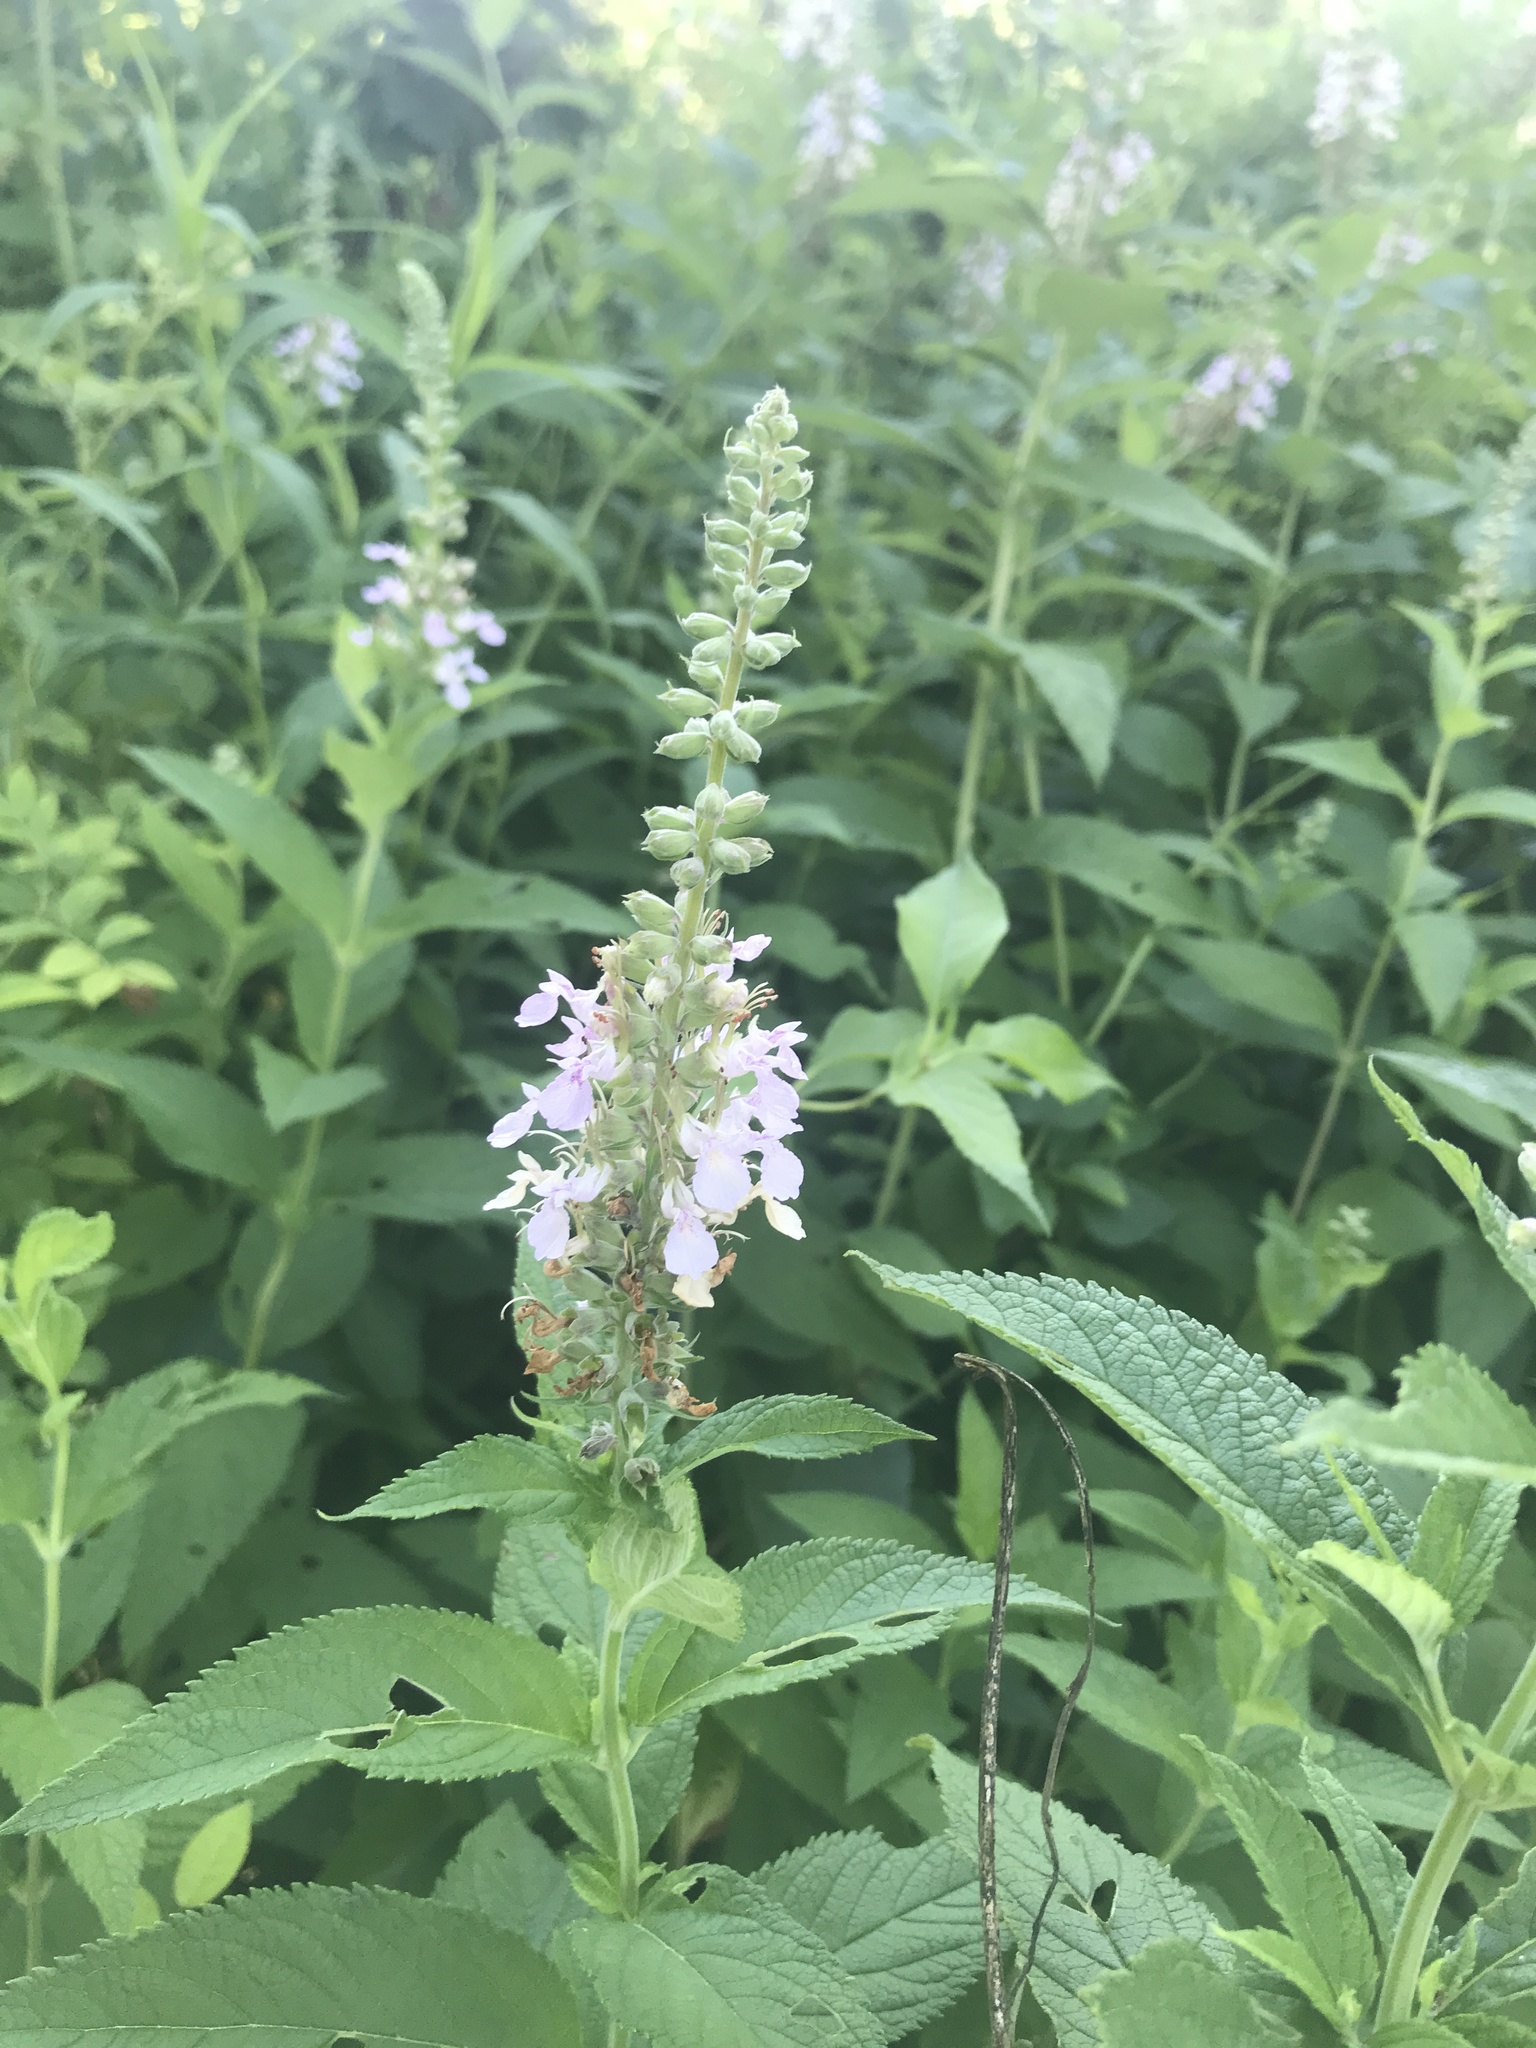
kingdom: Plantae
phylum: Tracheophyta
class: Magnoliopsida
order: Lamiales
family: Lamiaceae
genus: Teucrium
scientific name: Teucrium canadense
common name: American germander
